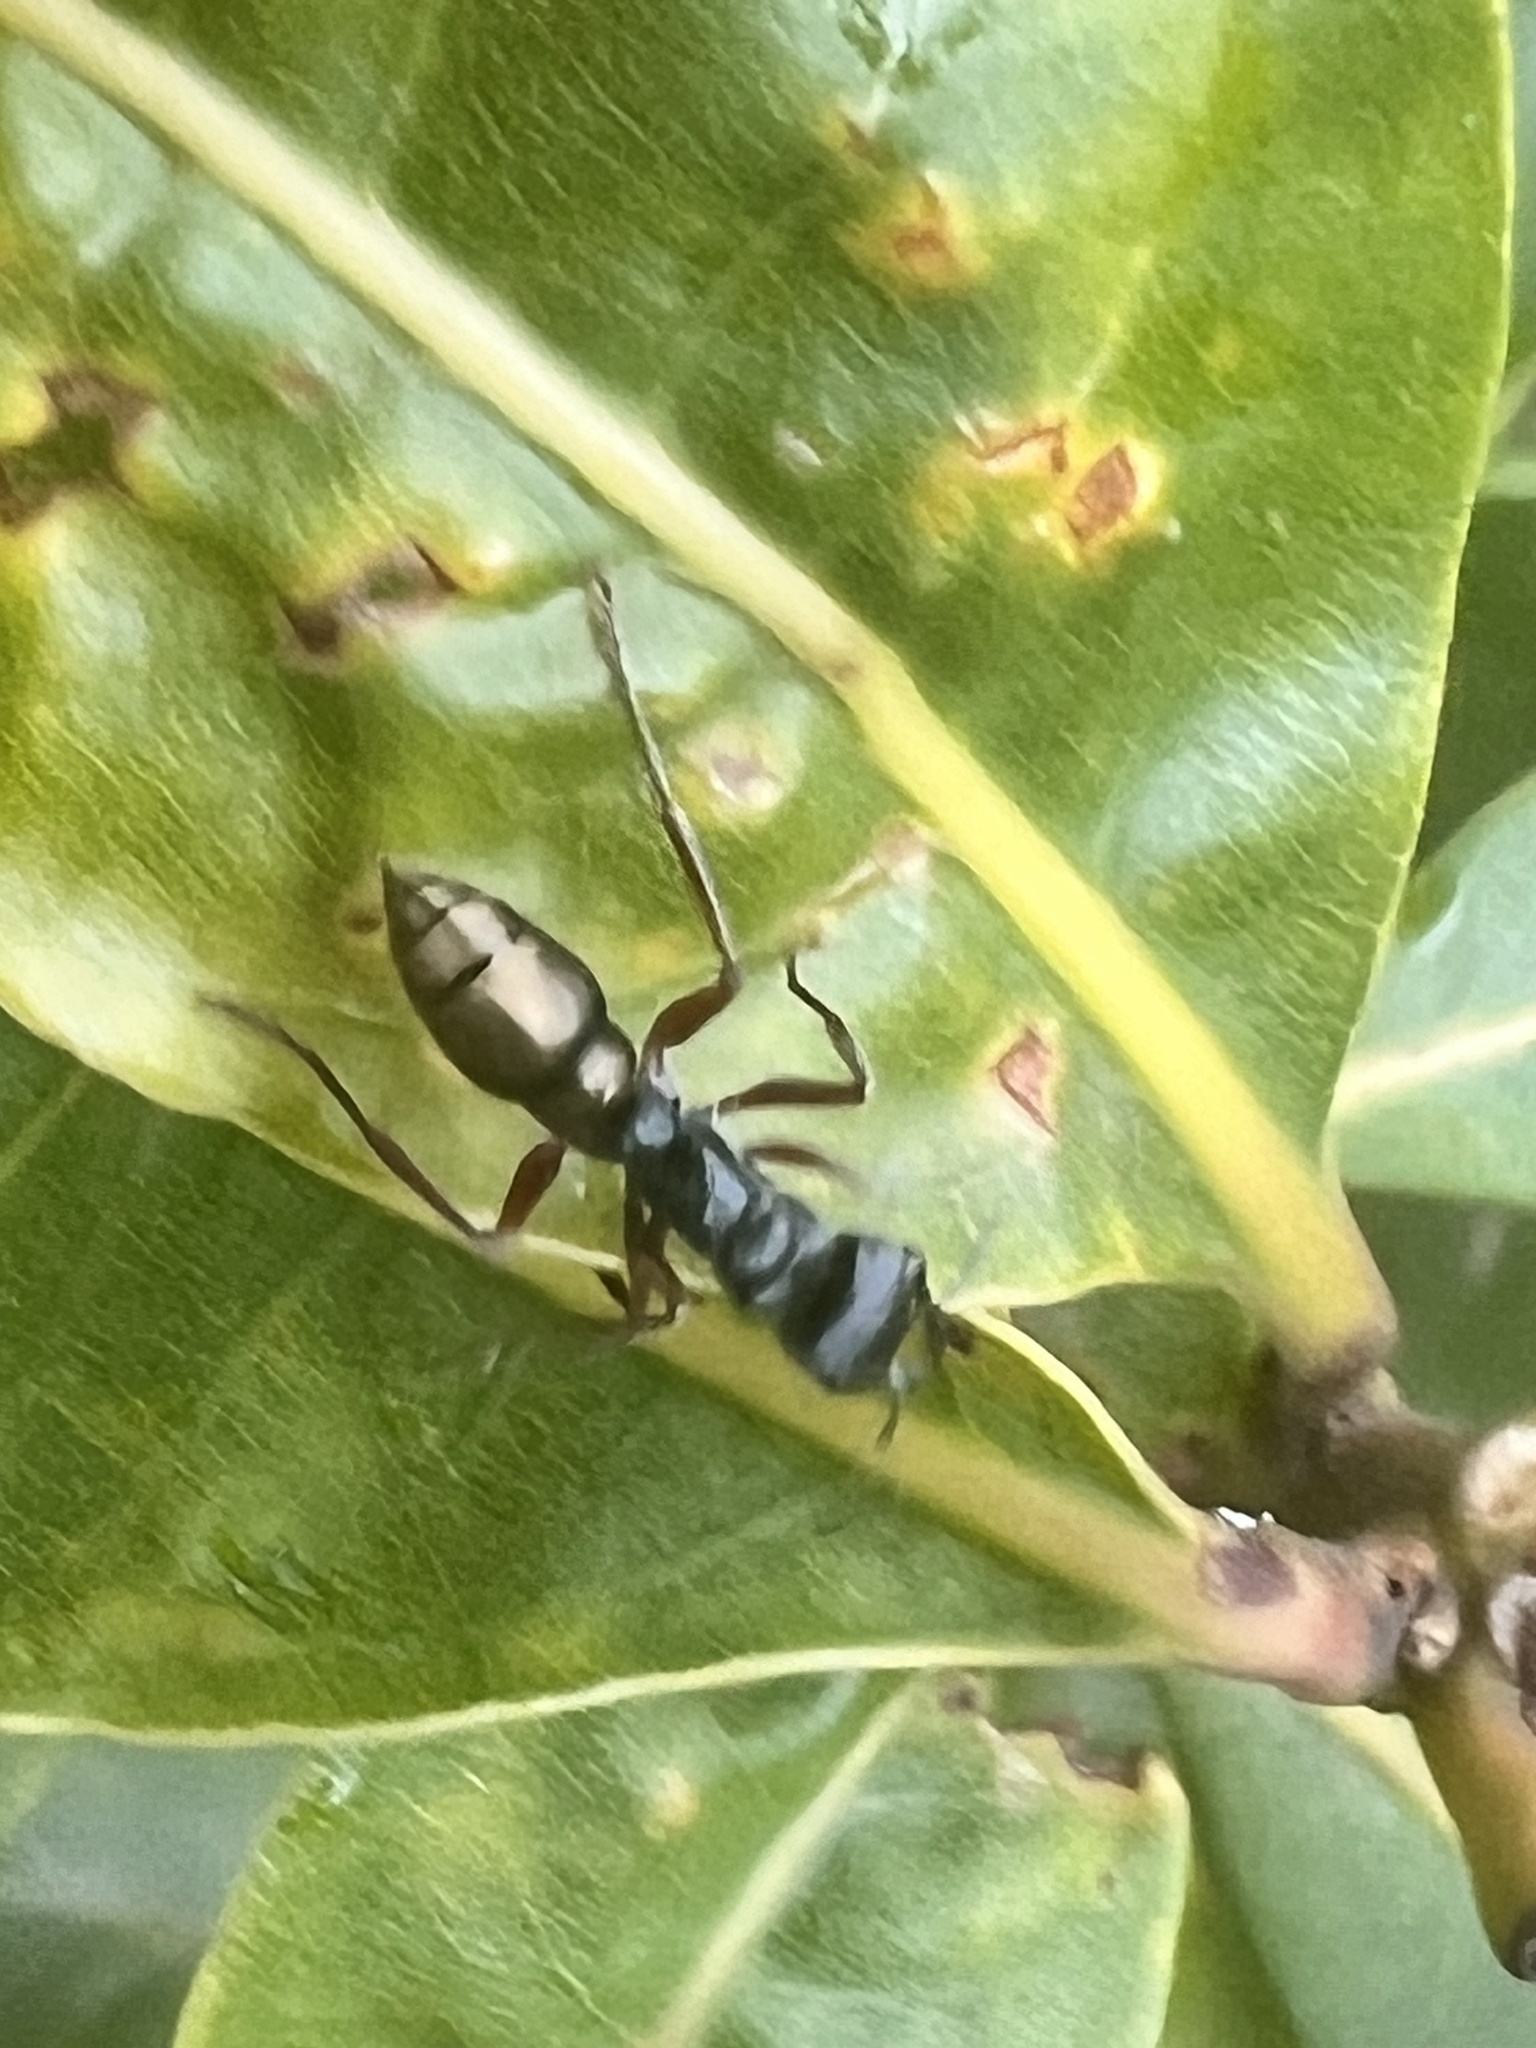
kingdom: Animalia
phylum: Arthropoda
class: Insecta
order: Hymenoptera
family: Formicidae
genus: Myrmecia
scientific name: Myrmecia fulvipes
